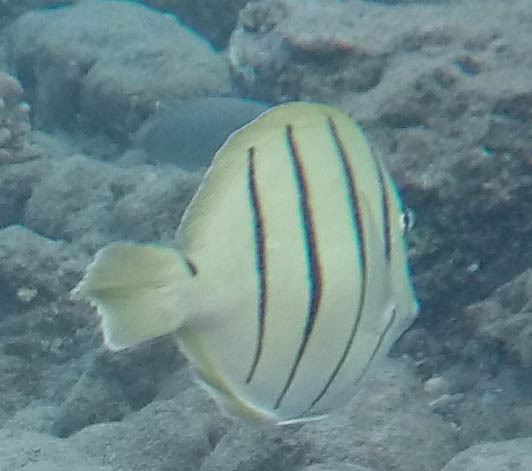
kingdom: Animalia
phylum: Chordata
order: Perciformes
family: Acanthuridae
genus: Acanthurus
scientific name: Acanthurus triostegus
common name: Convict surgeonfish
